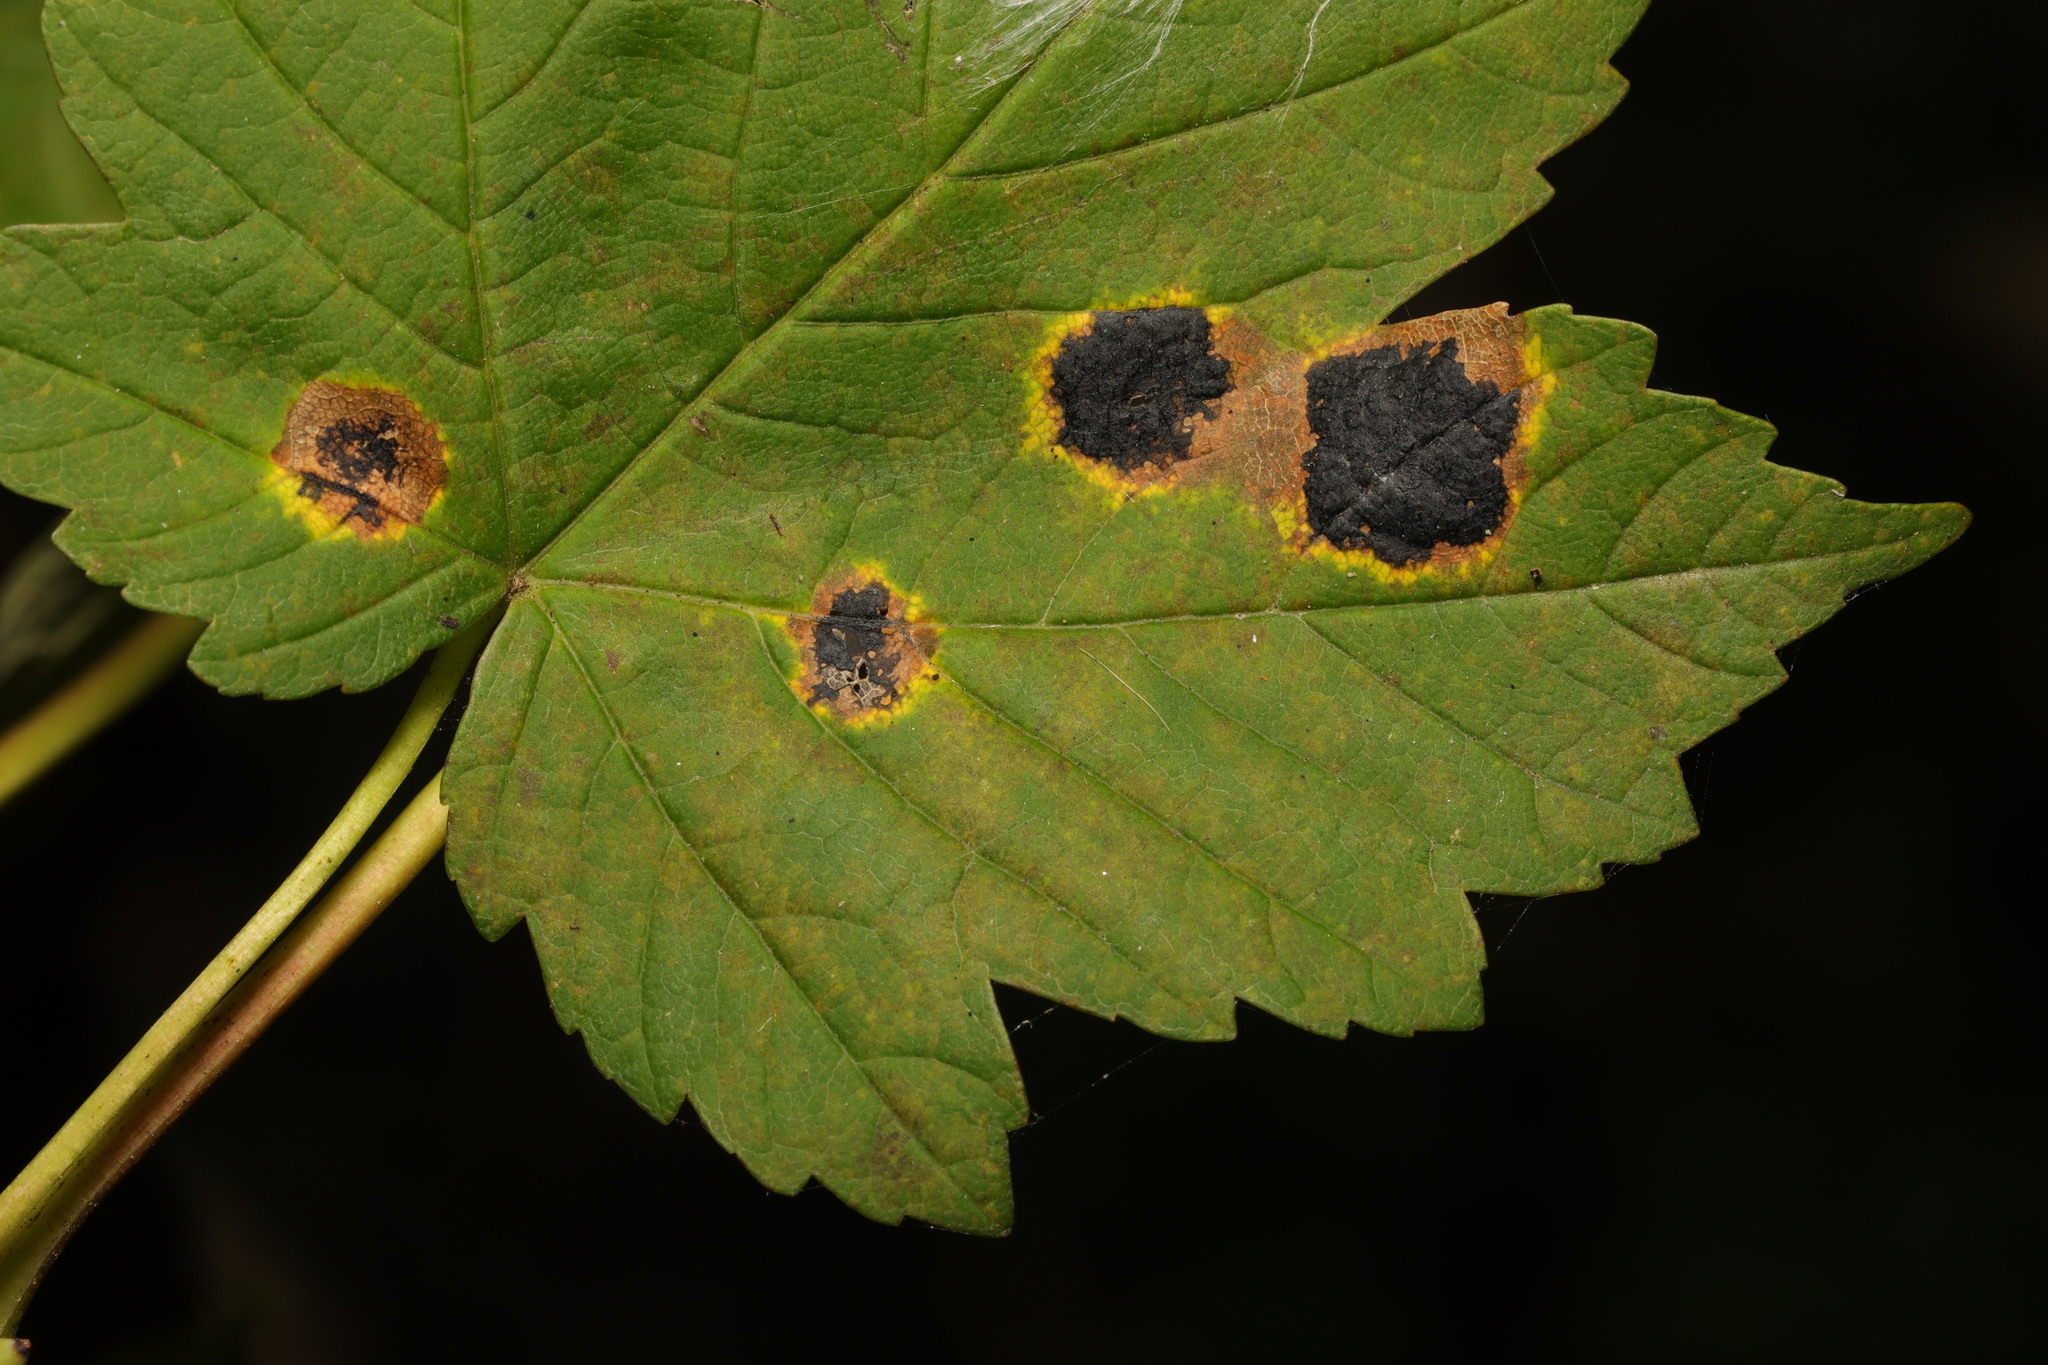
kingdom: Fungi
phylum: Ascomycota
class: Leotiomycetes
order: Rhytismatales
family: Rhytismataceae
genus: Rhytisma
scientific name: Rhytisma acerinum
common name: European tar spot
